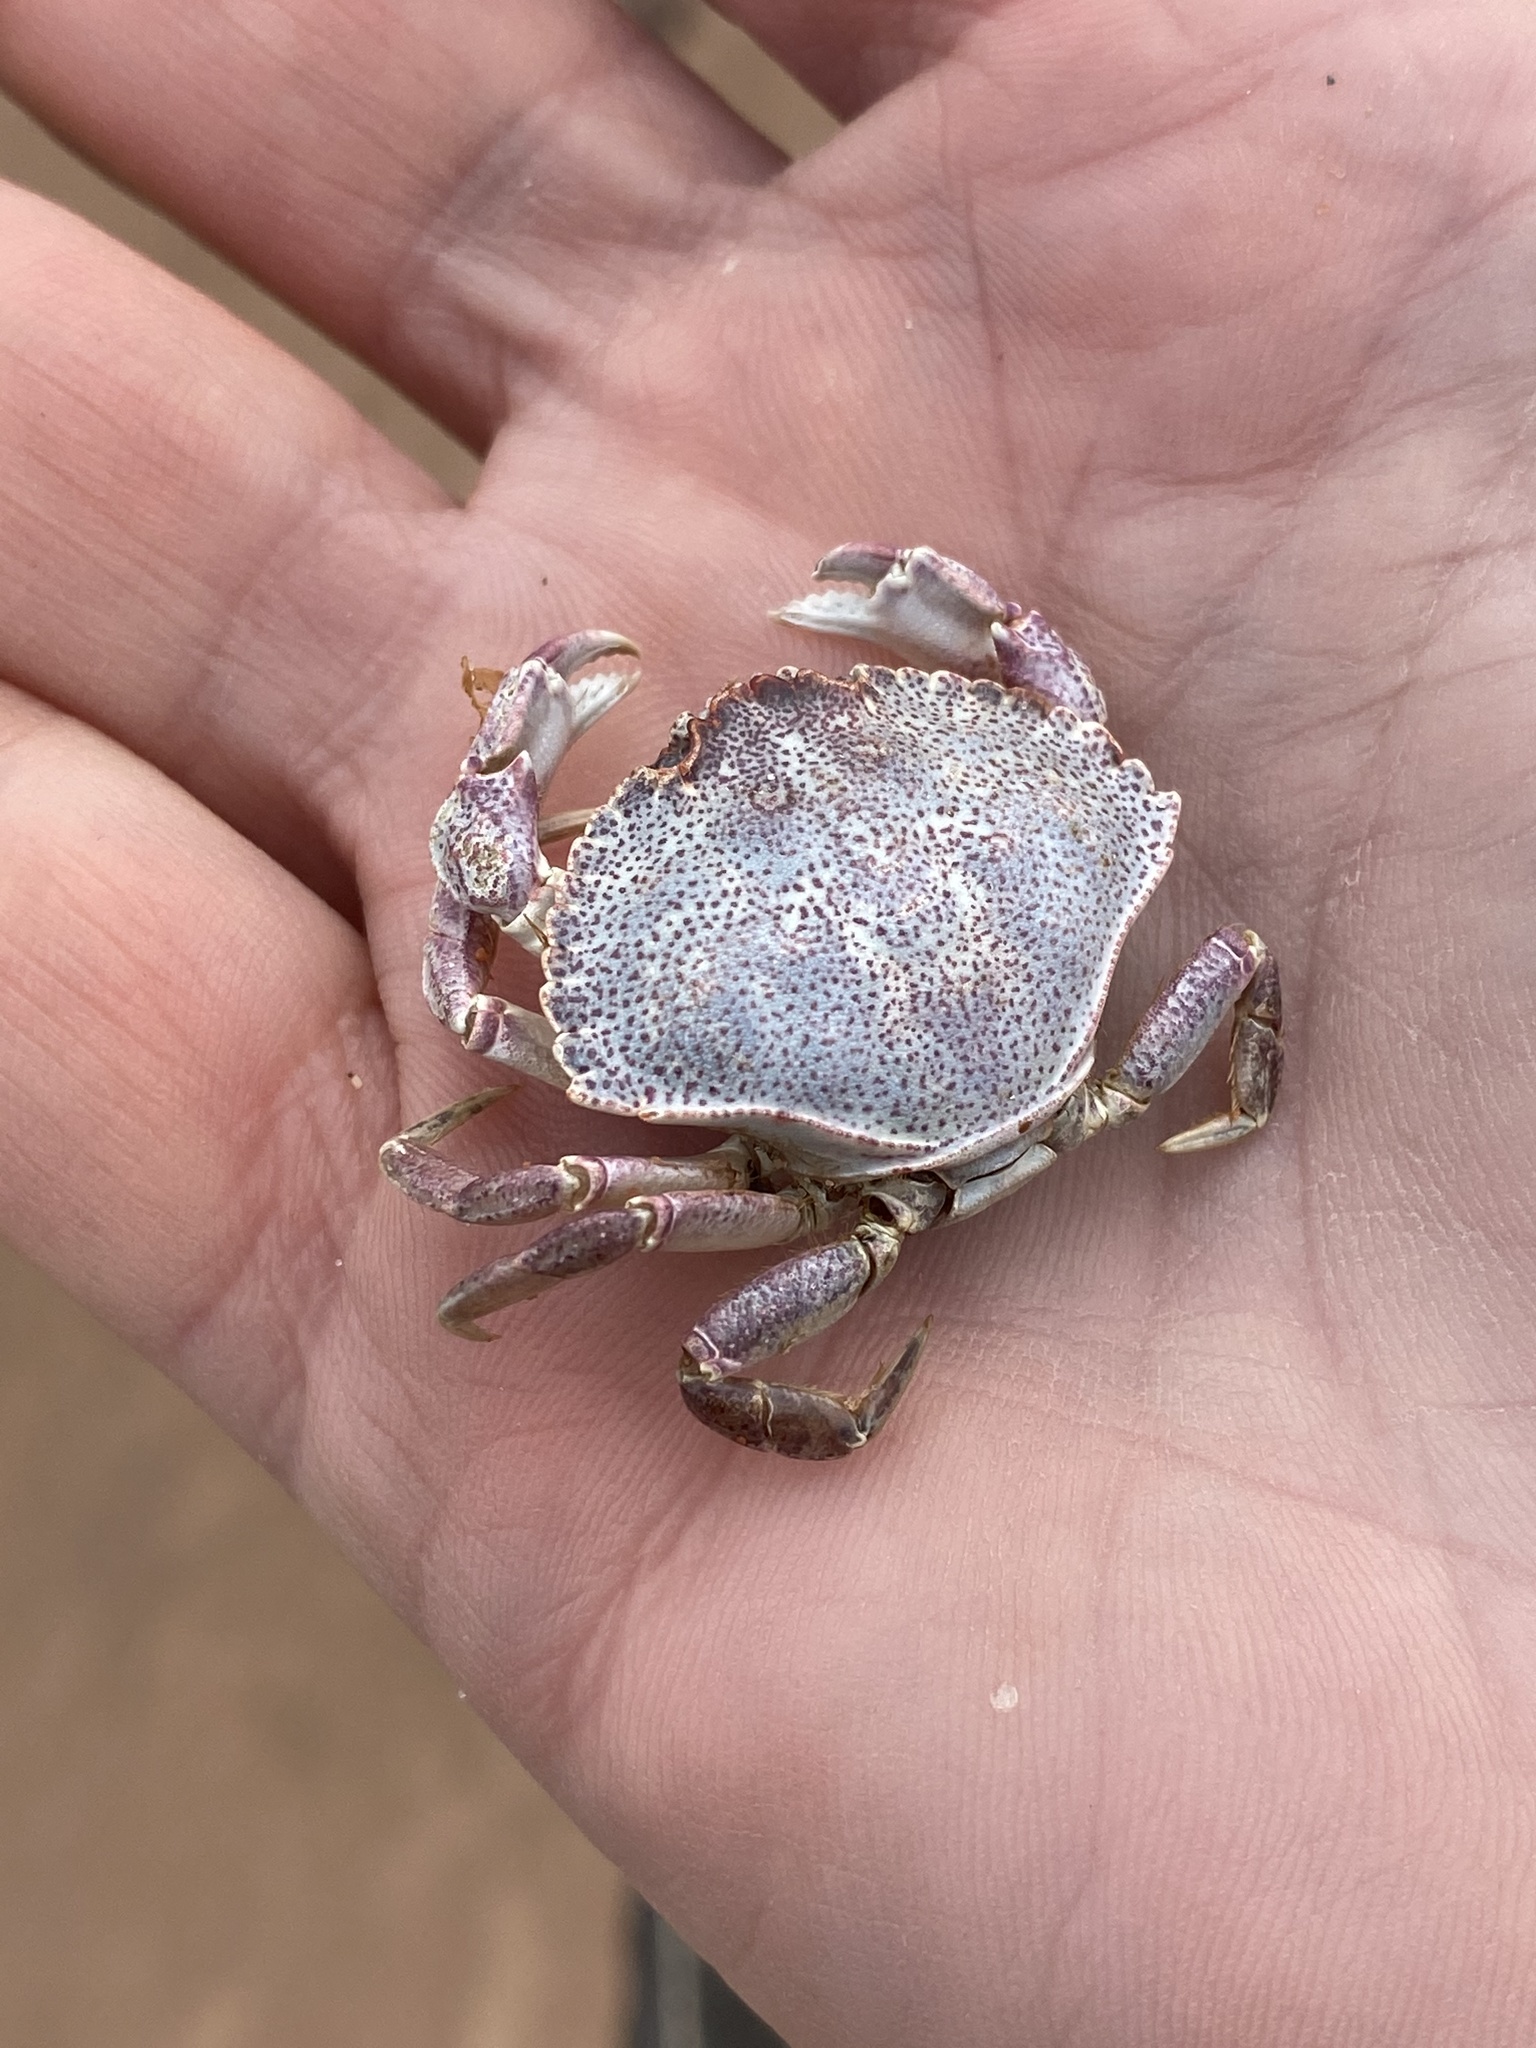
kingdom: Animalia
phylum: Arthropoda
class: Malacostraca
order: Decapoda
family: Cancridae
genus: Cancer
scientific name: Cancer irroratus
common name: Atlantic rock crab
